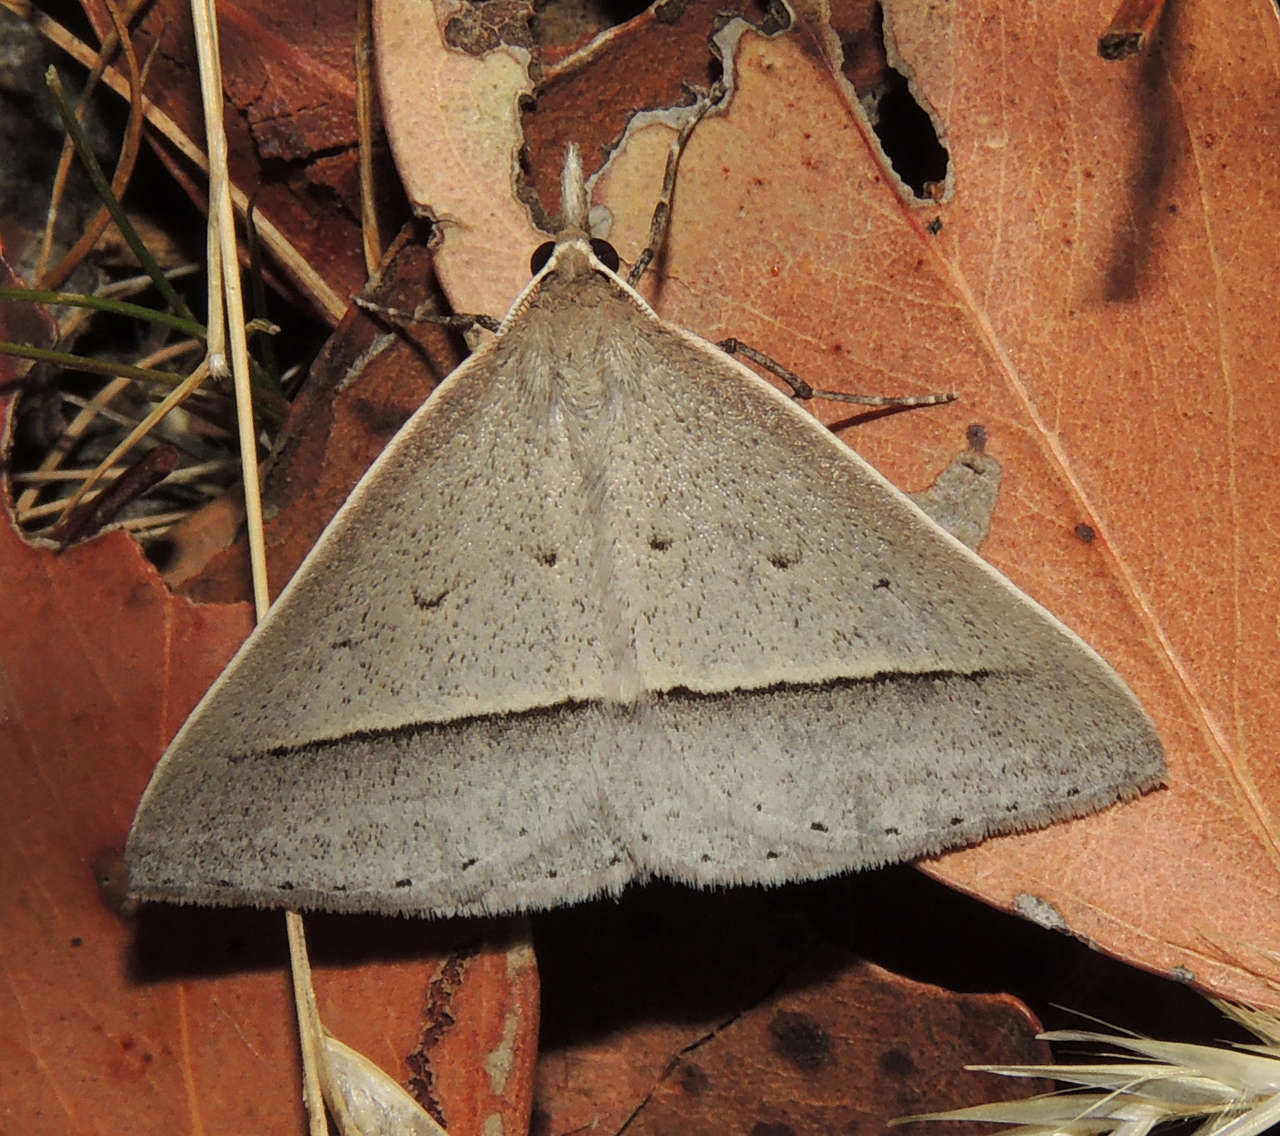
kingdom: Animalia
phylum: Arthropoda
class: Insecta
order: Lepidoptera
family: Geometridae
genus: Epidesmia
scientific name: Epidesmia perfabricata
